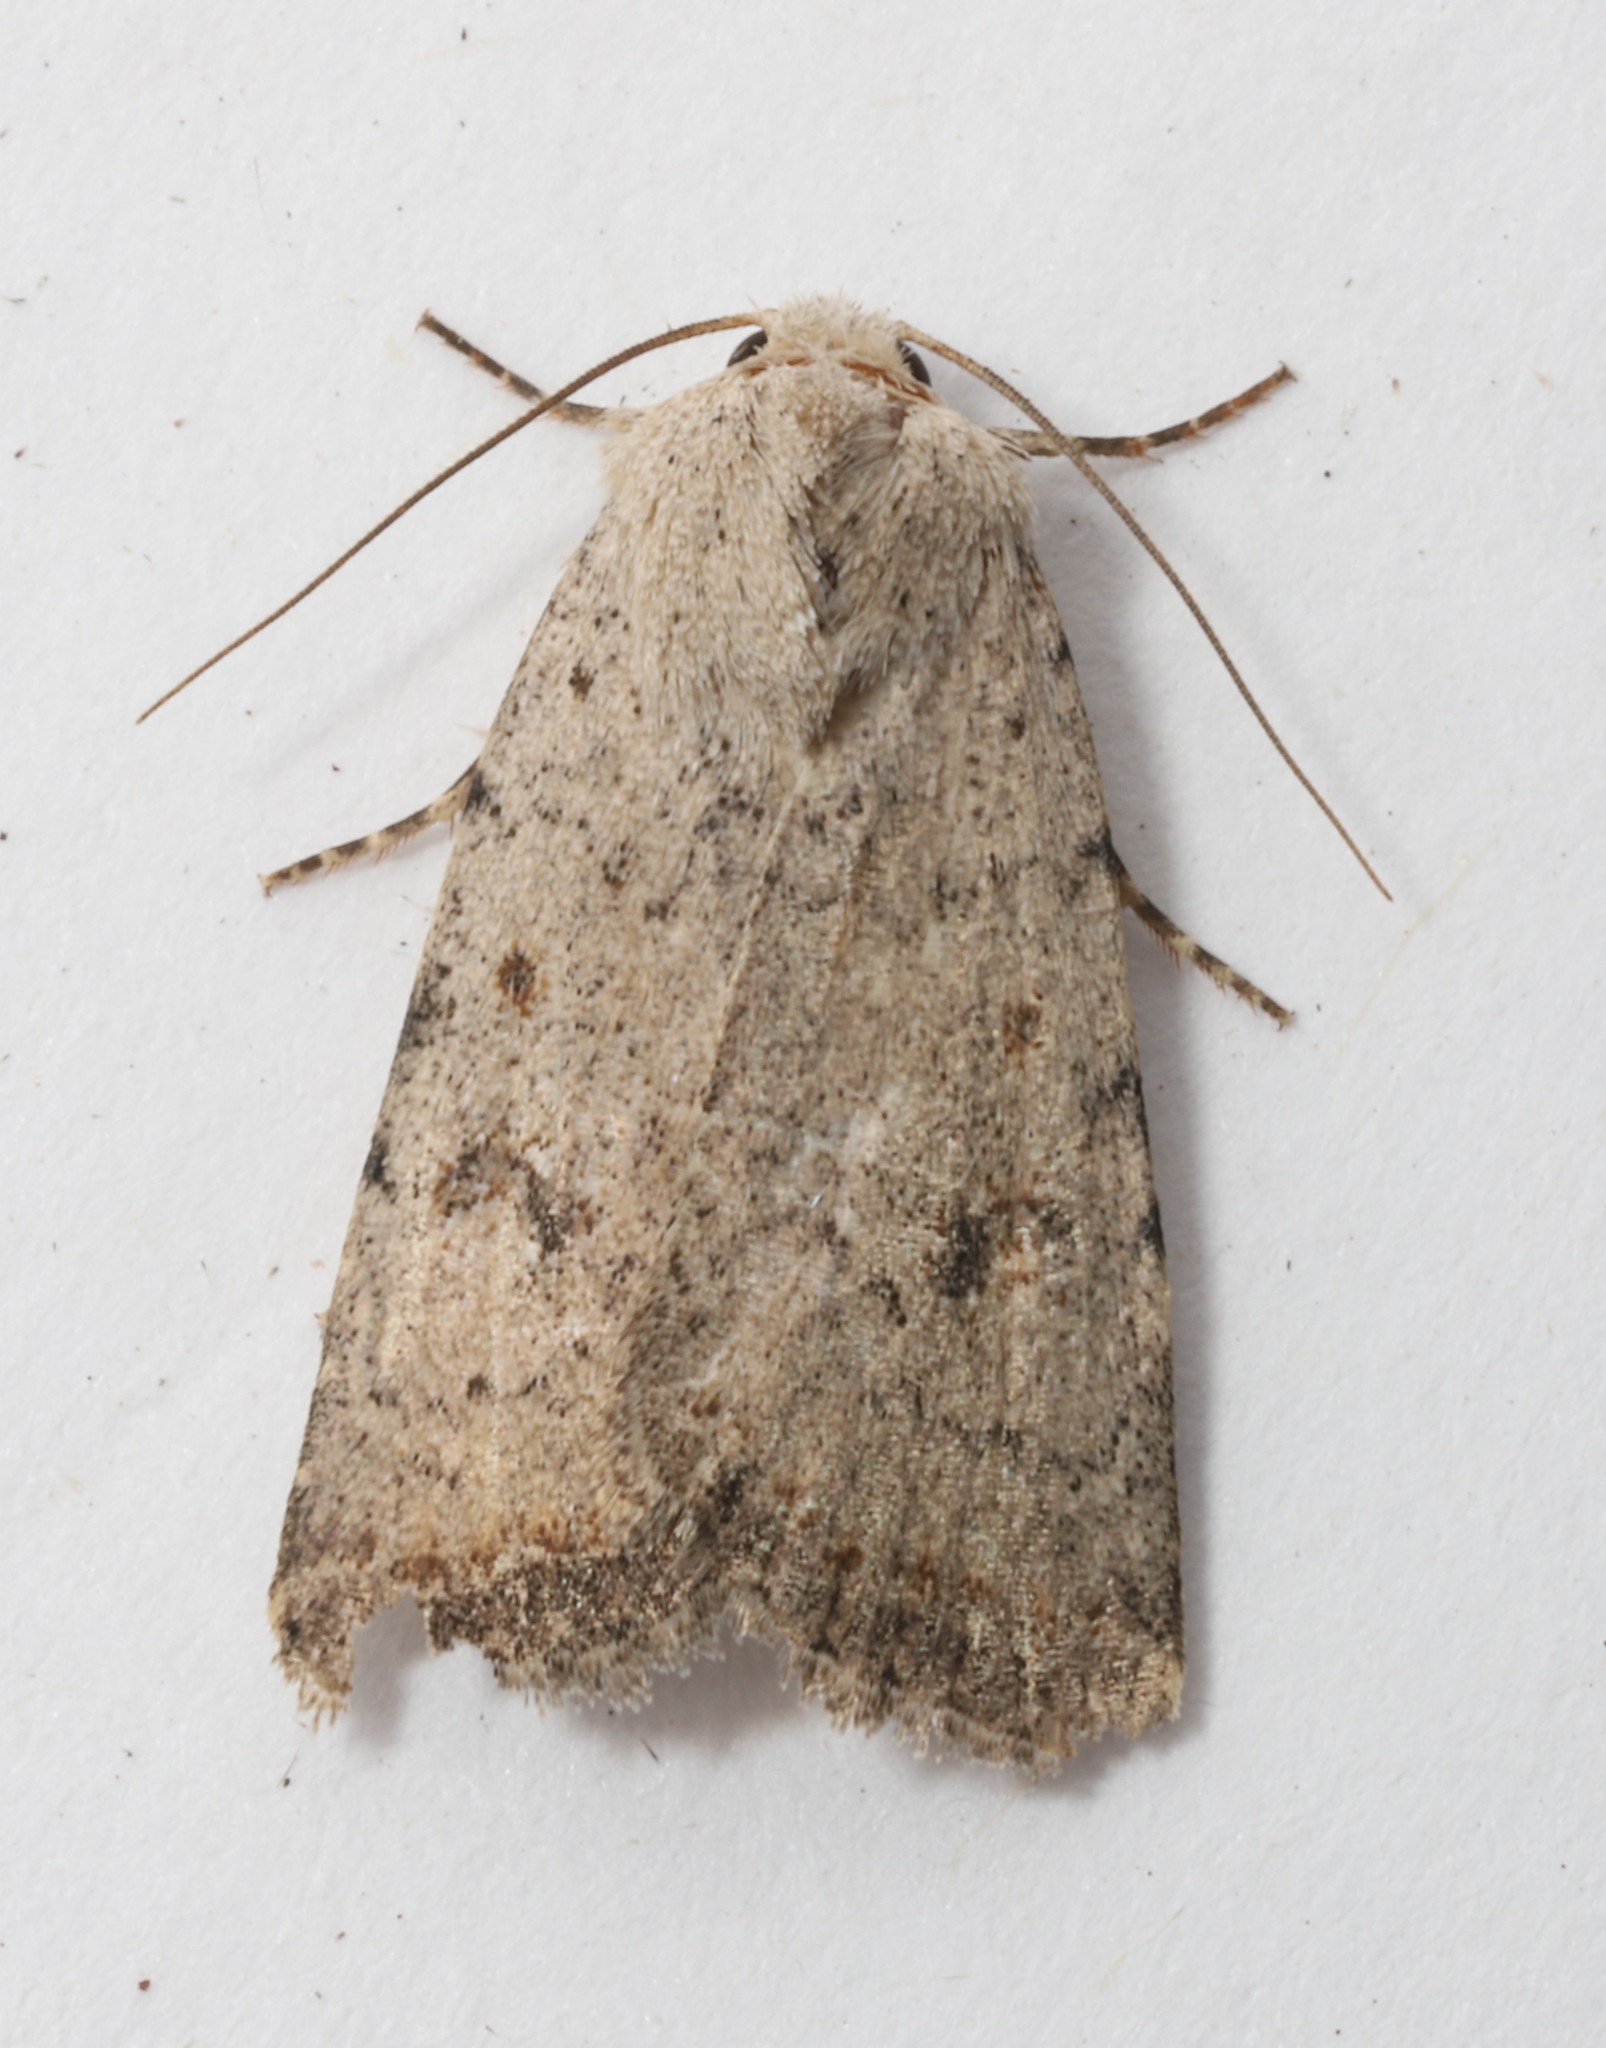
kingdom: Animalia
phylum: Arthropoda
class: Insecta
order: Lepidoptera
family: Noctuidae
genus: Caradrina
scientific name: Caradrina multifera
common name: Speckled rustic
